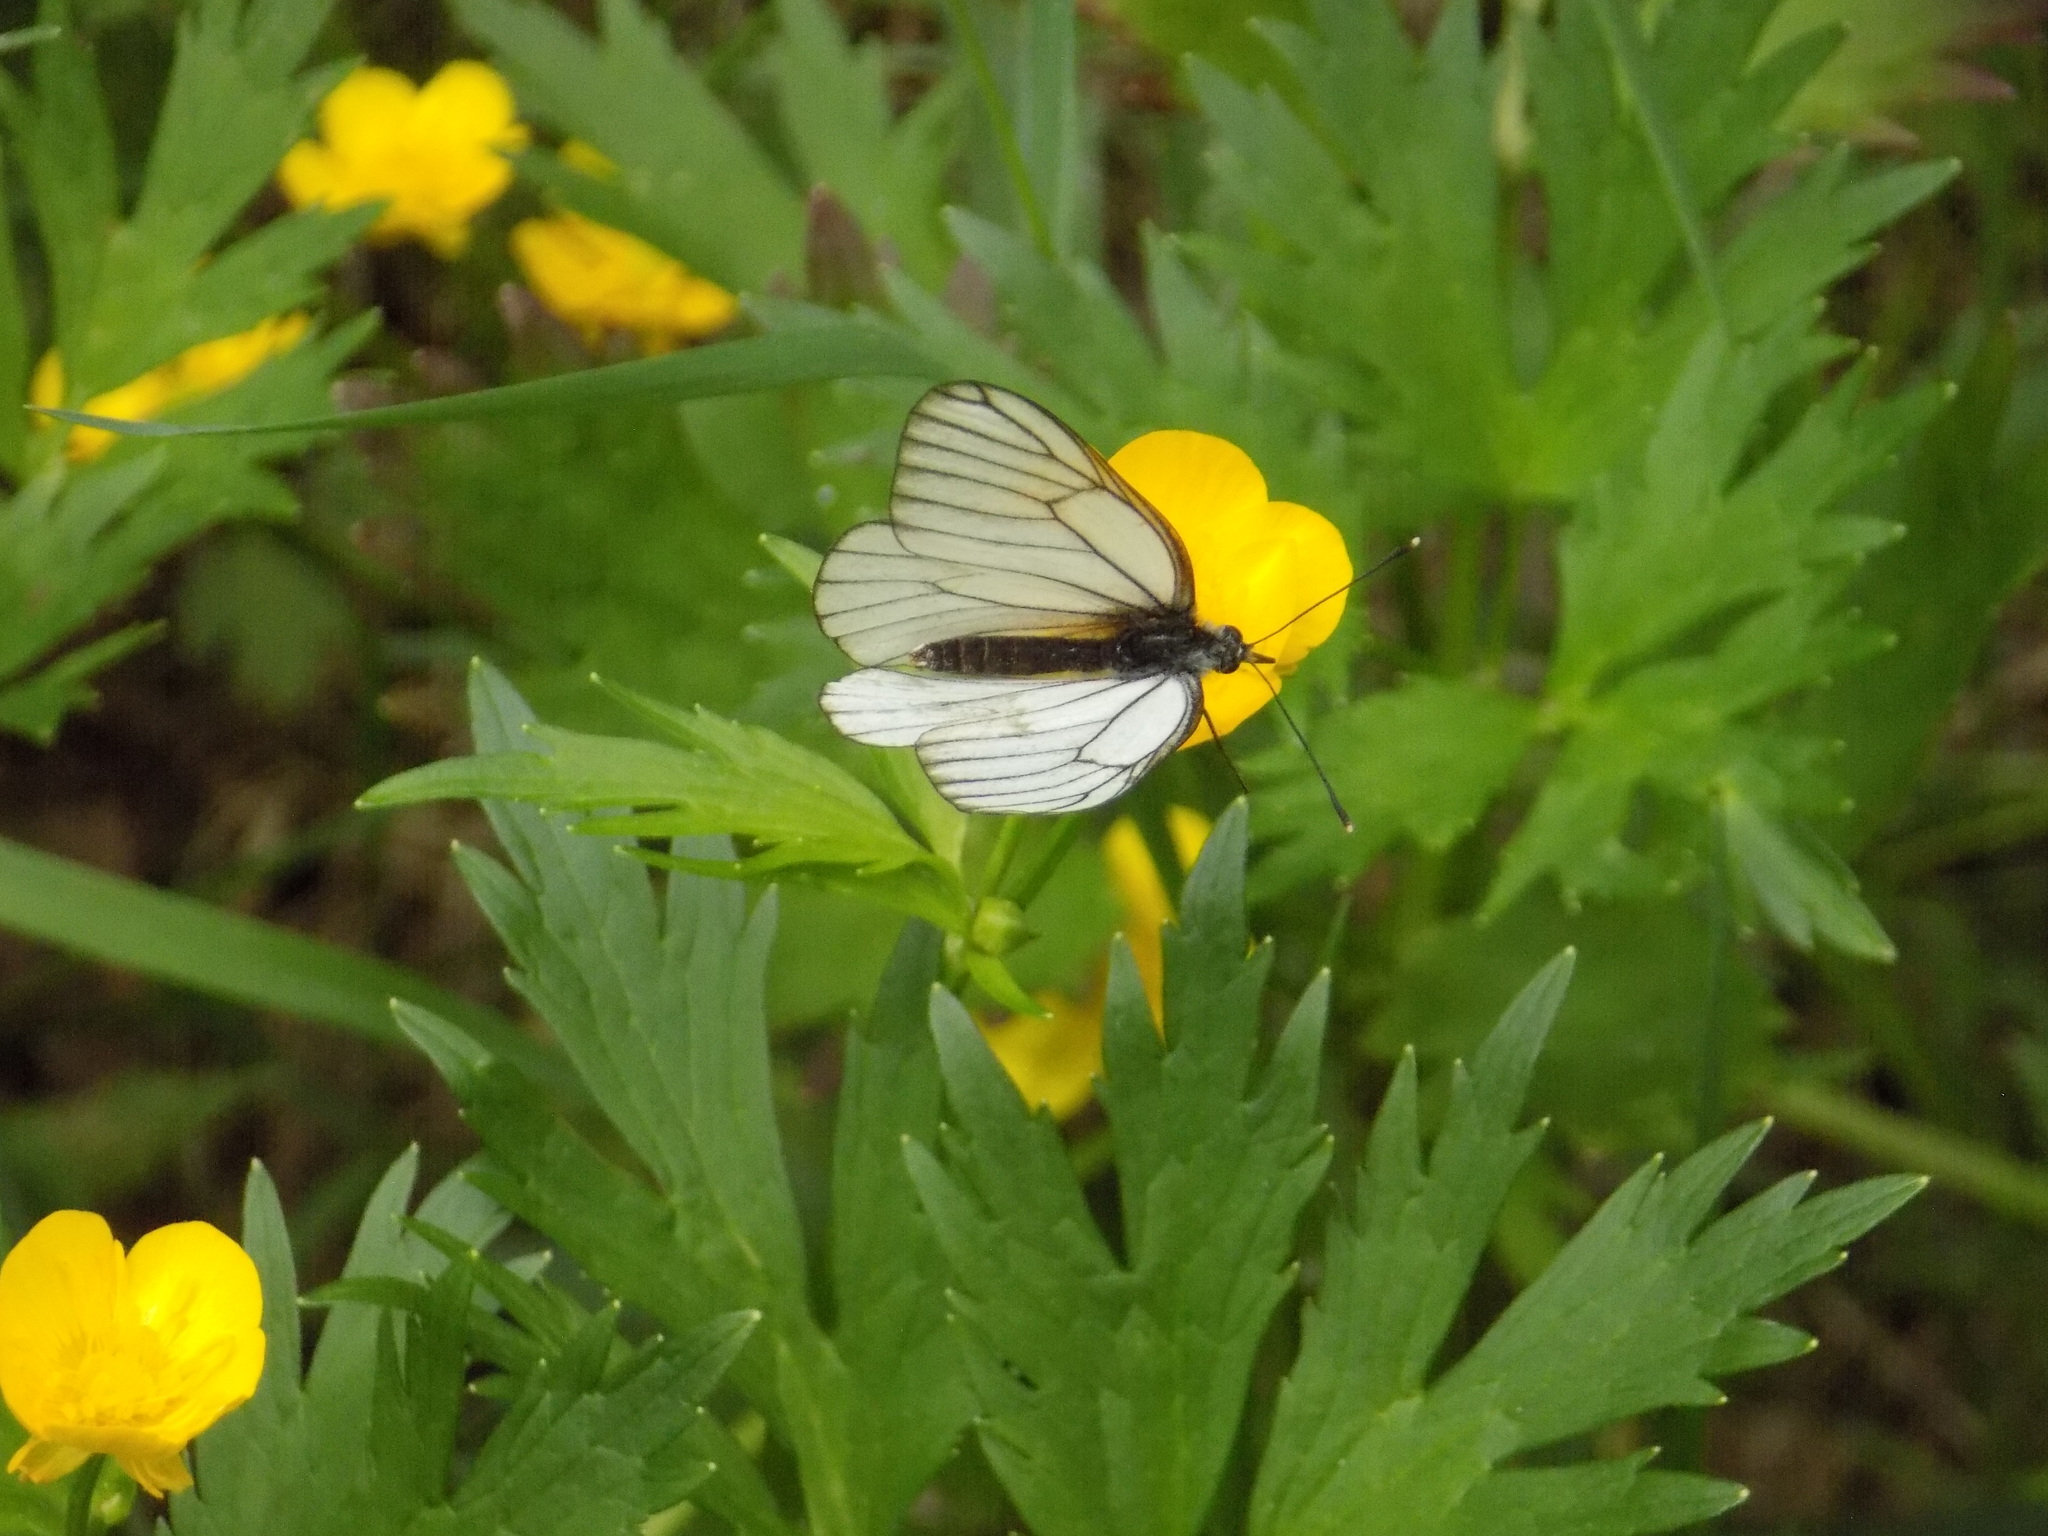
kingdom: Animalia
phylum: Arthropoda
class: Insecta
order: Lepidoptera
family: Pieridae
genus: Aporia
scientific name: Aporia crataegi
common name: Black-veined white
